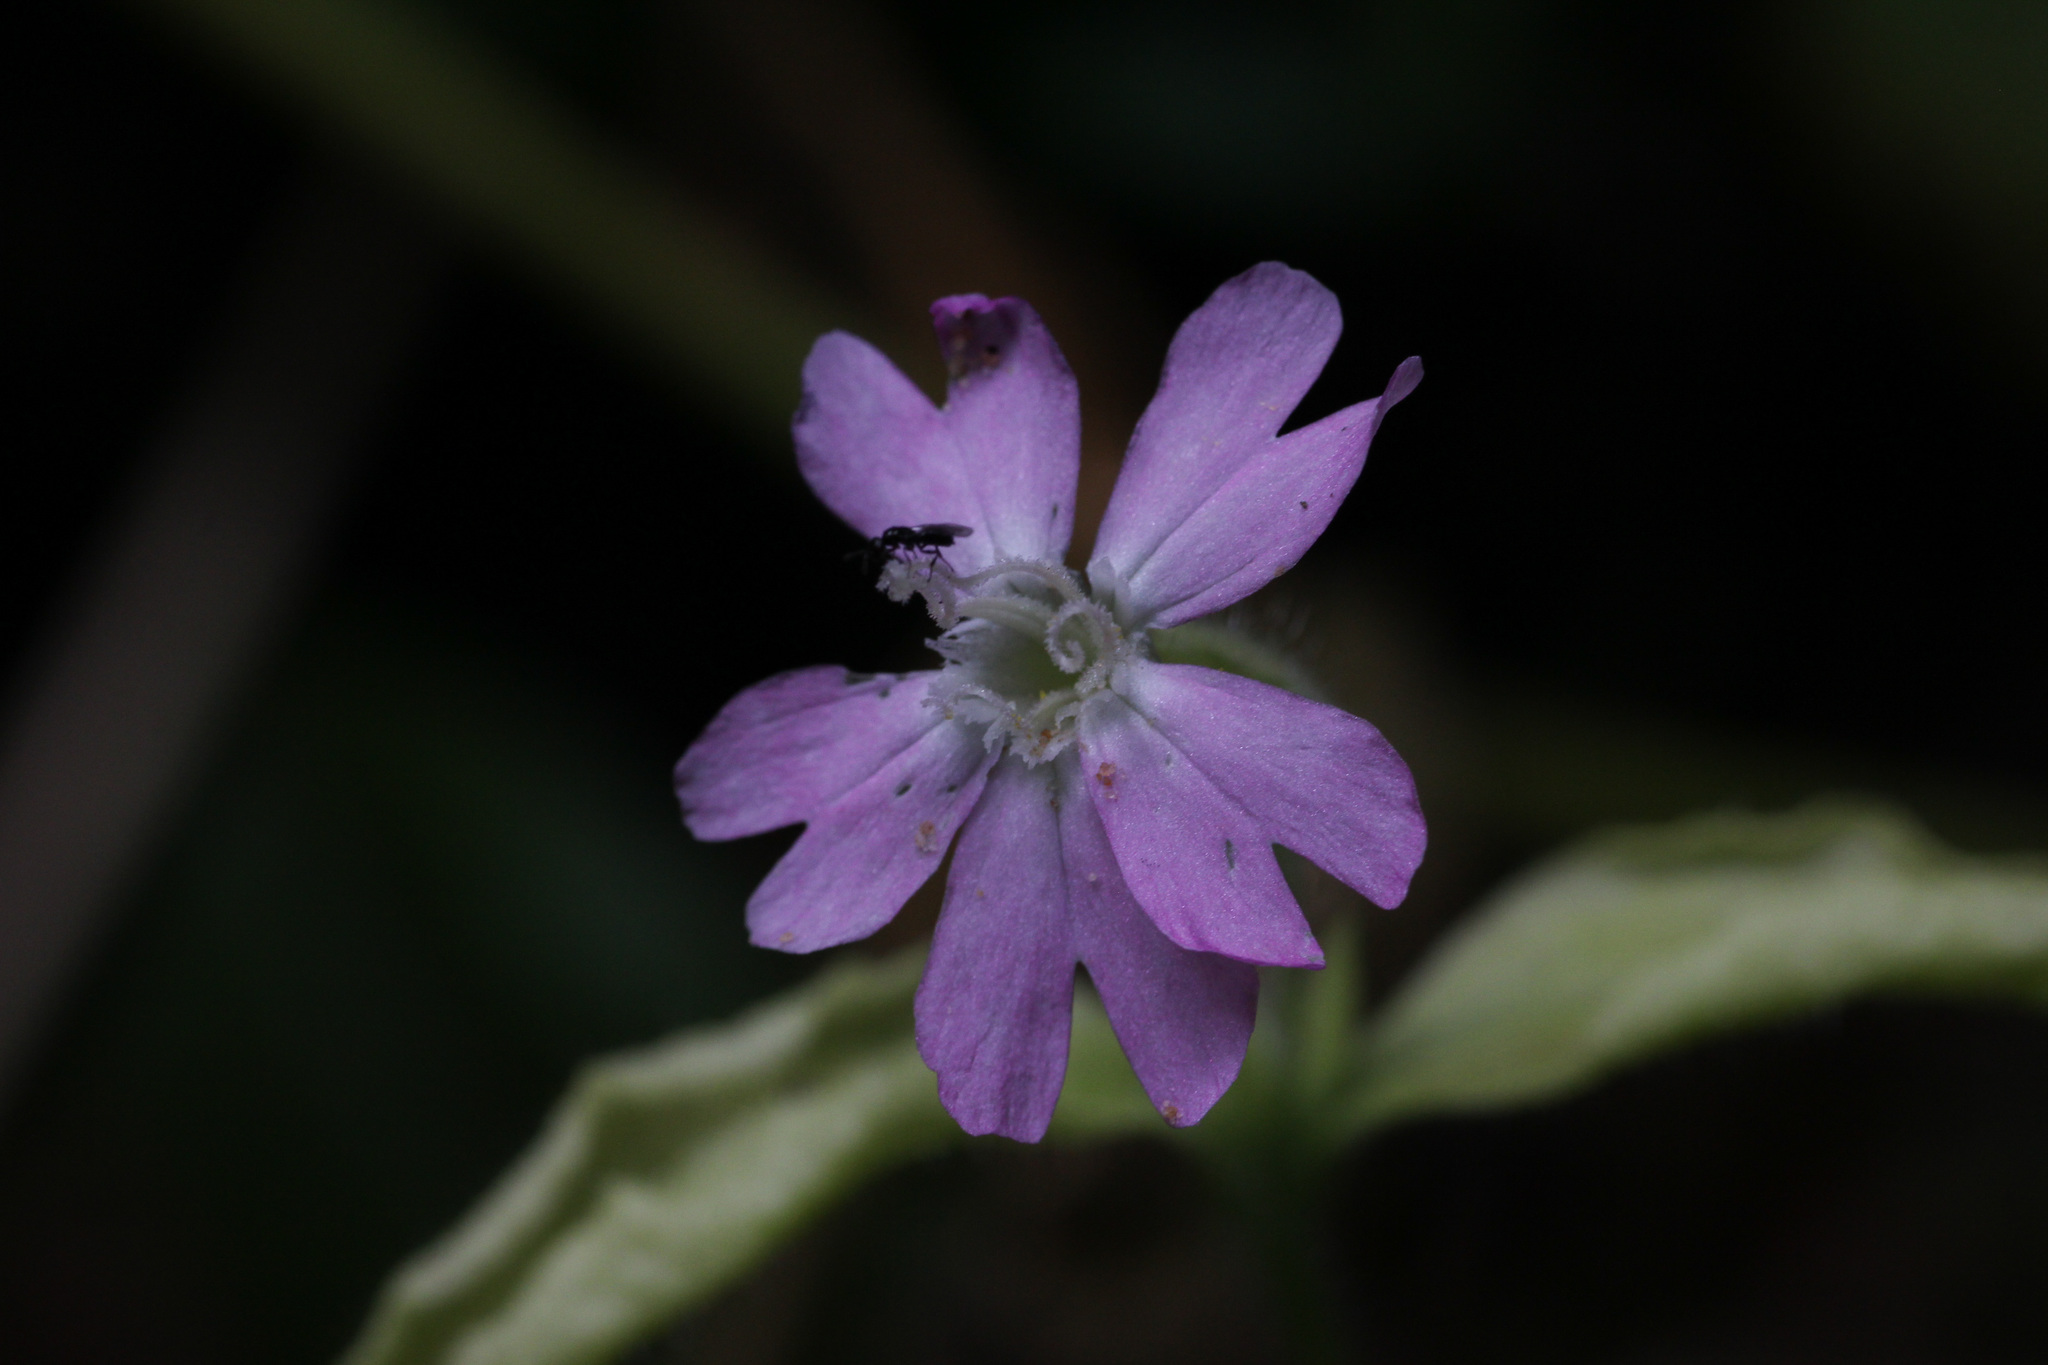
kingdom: Plantae
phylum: Tracheophyta
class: Magnoliopsida
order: Caryophyllales
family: Caryophyllaceae
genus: Silene
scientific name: Silene dioica
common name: Red campion
